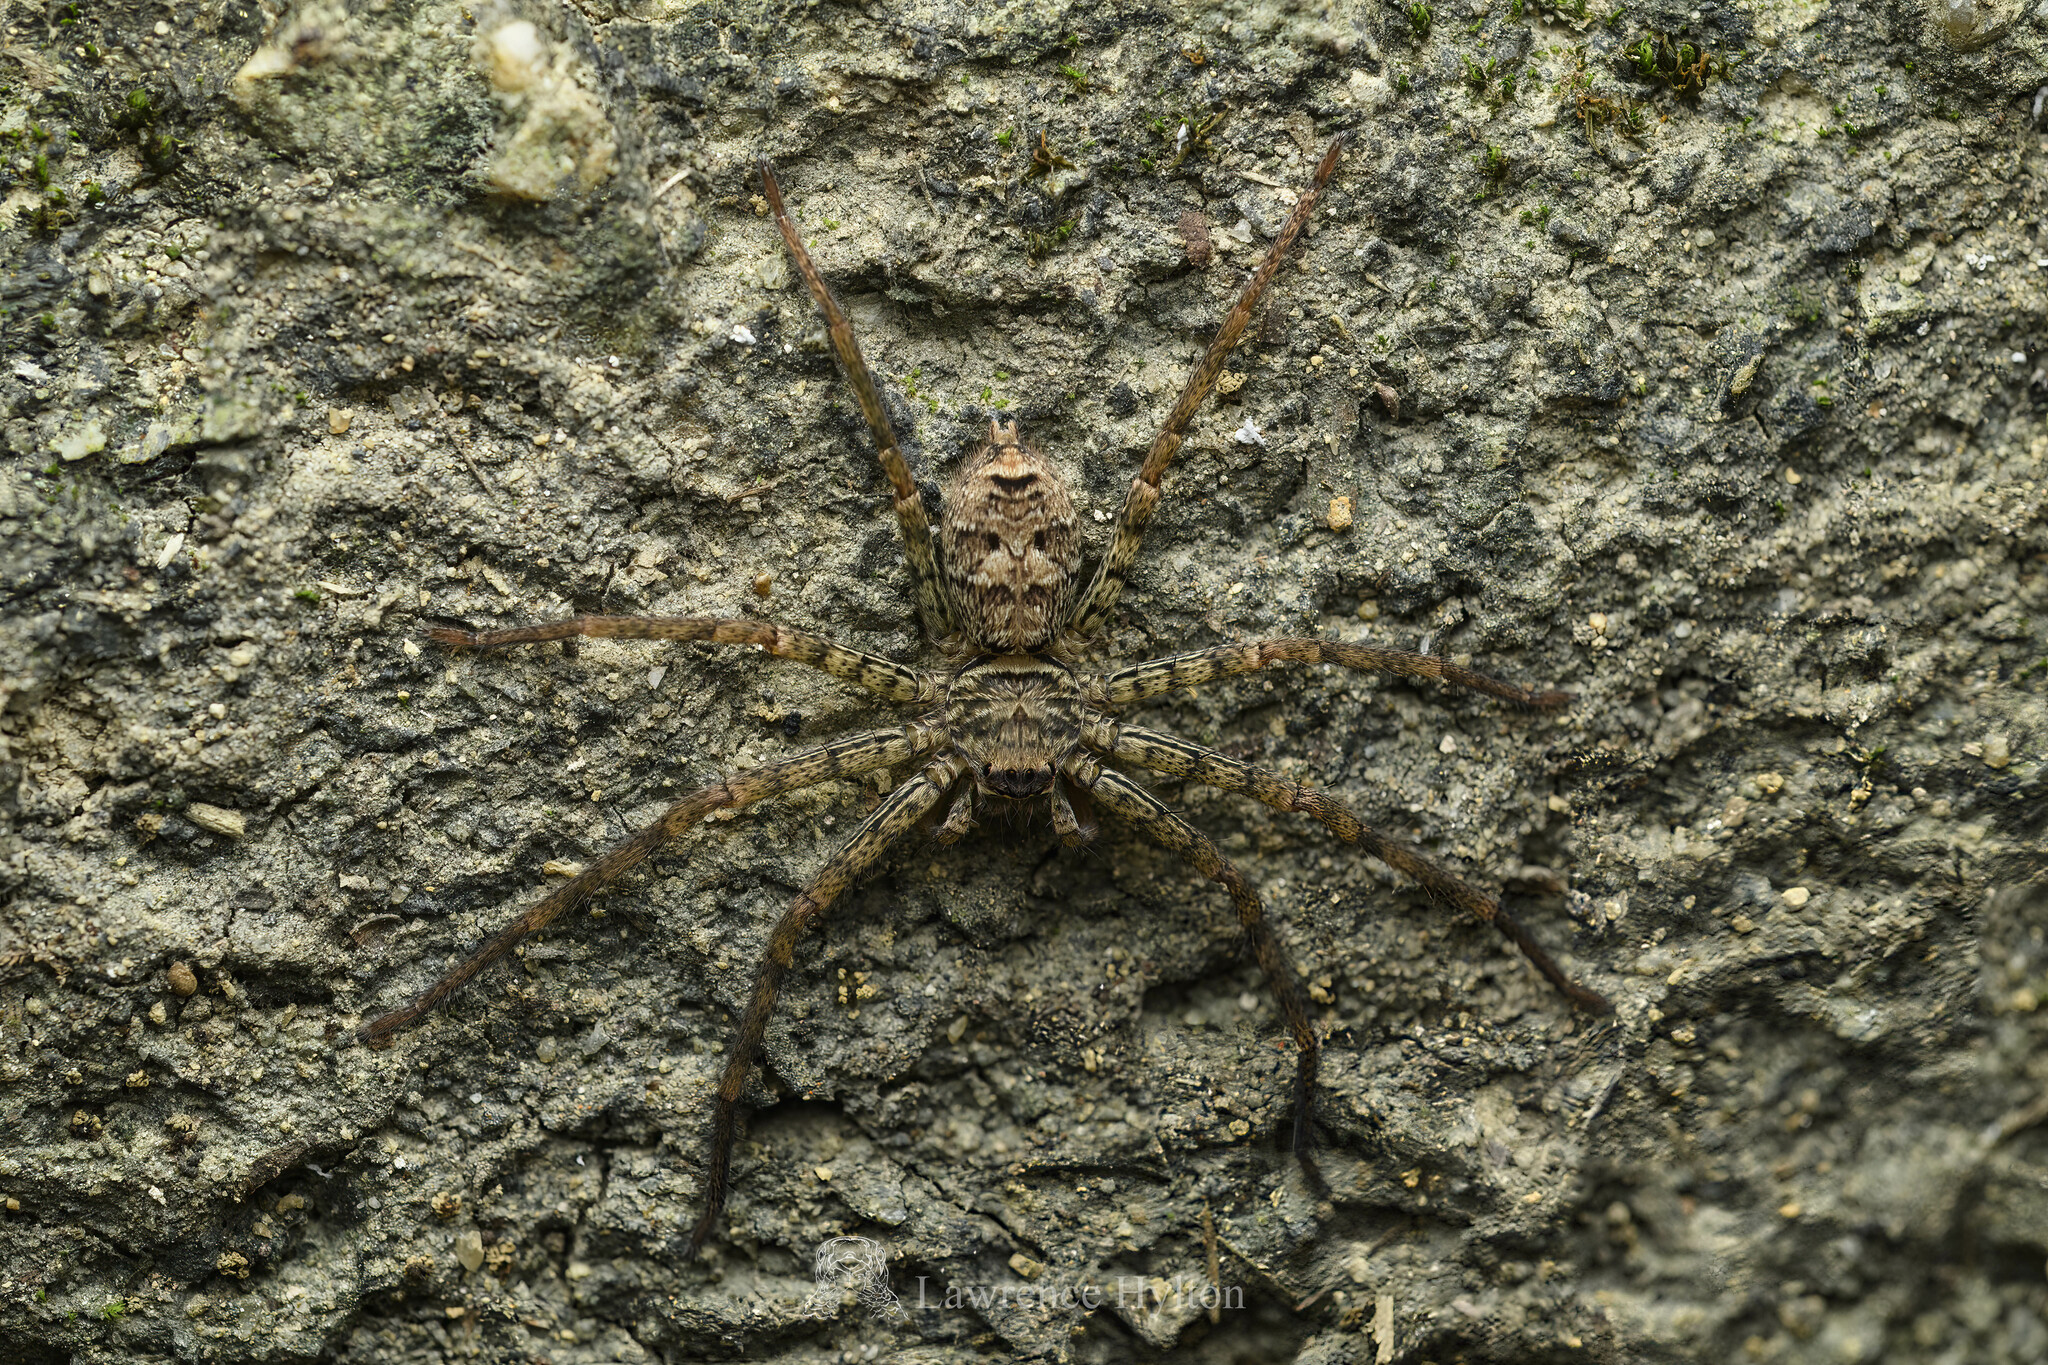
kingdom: Animalia
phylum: Arthropoda
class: Arachnida
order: Araneae
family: Sparassidae
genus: Heteropoda
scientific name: Heteropoda venatoria
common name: Huntsman spider
